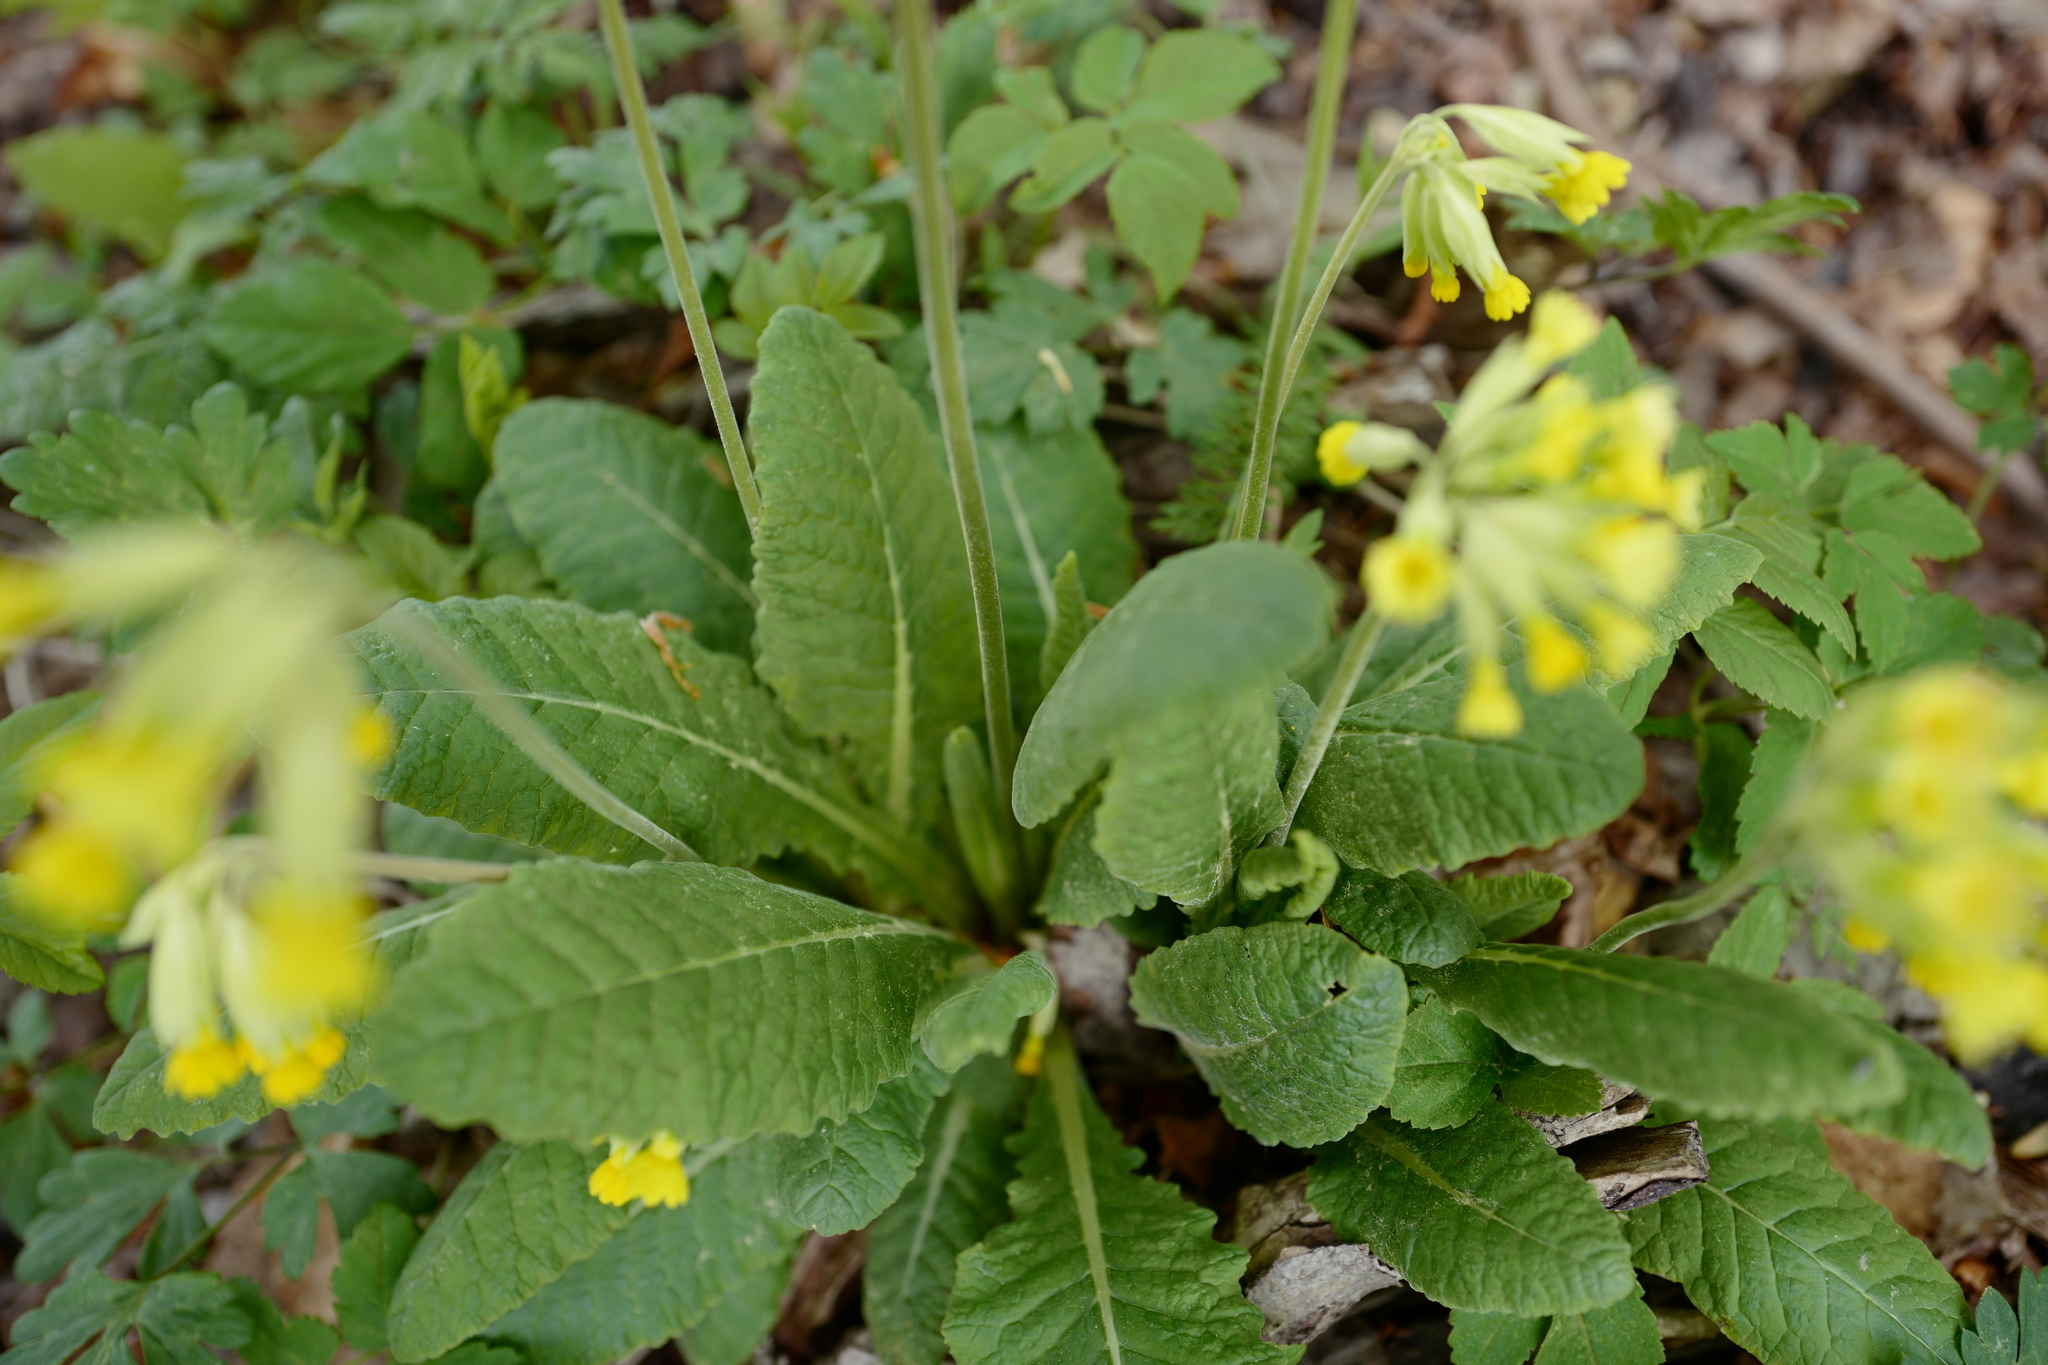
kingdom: Plantae
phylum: Tracheophyta
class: Magnoliopsida
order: Ericales
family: Primulaceae
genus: Primula
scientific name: Primula veris
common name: Cowslip
